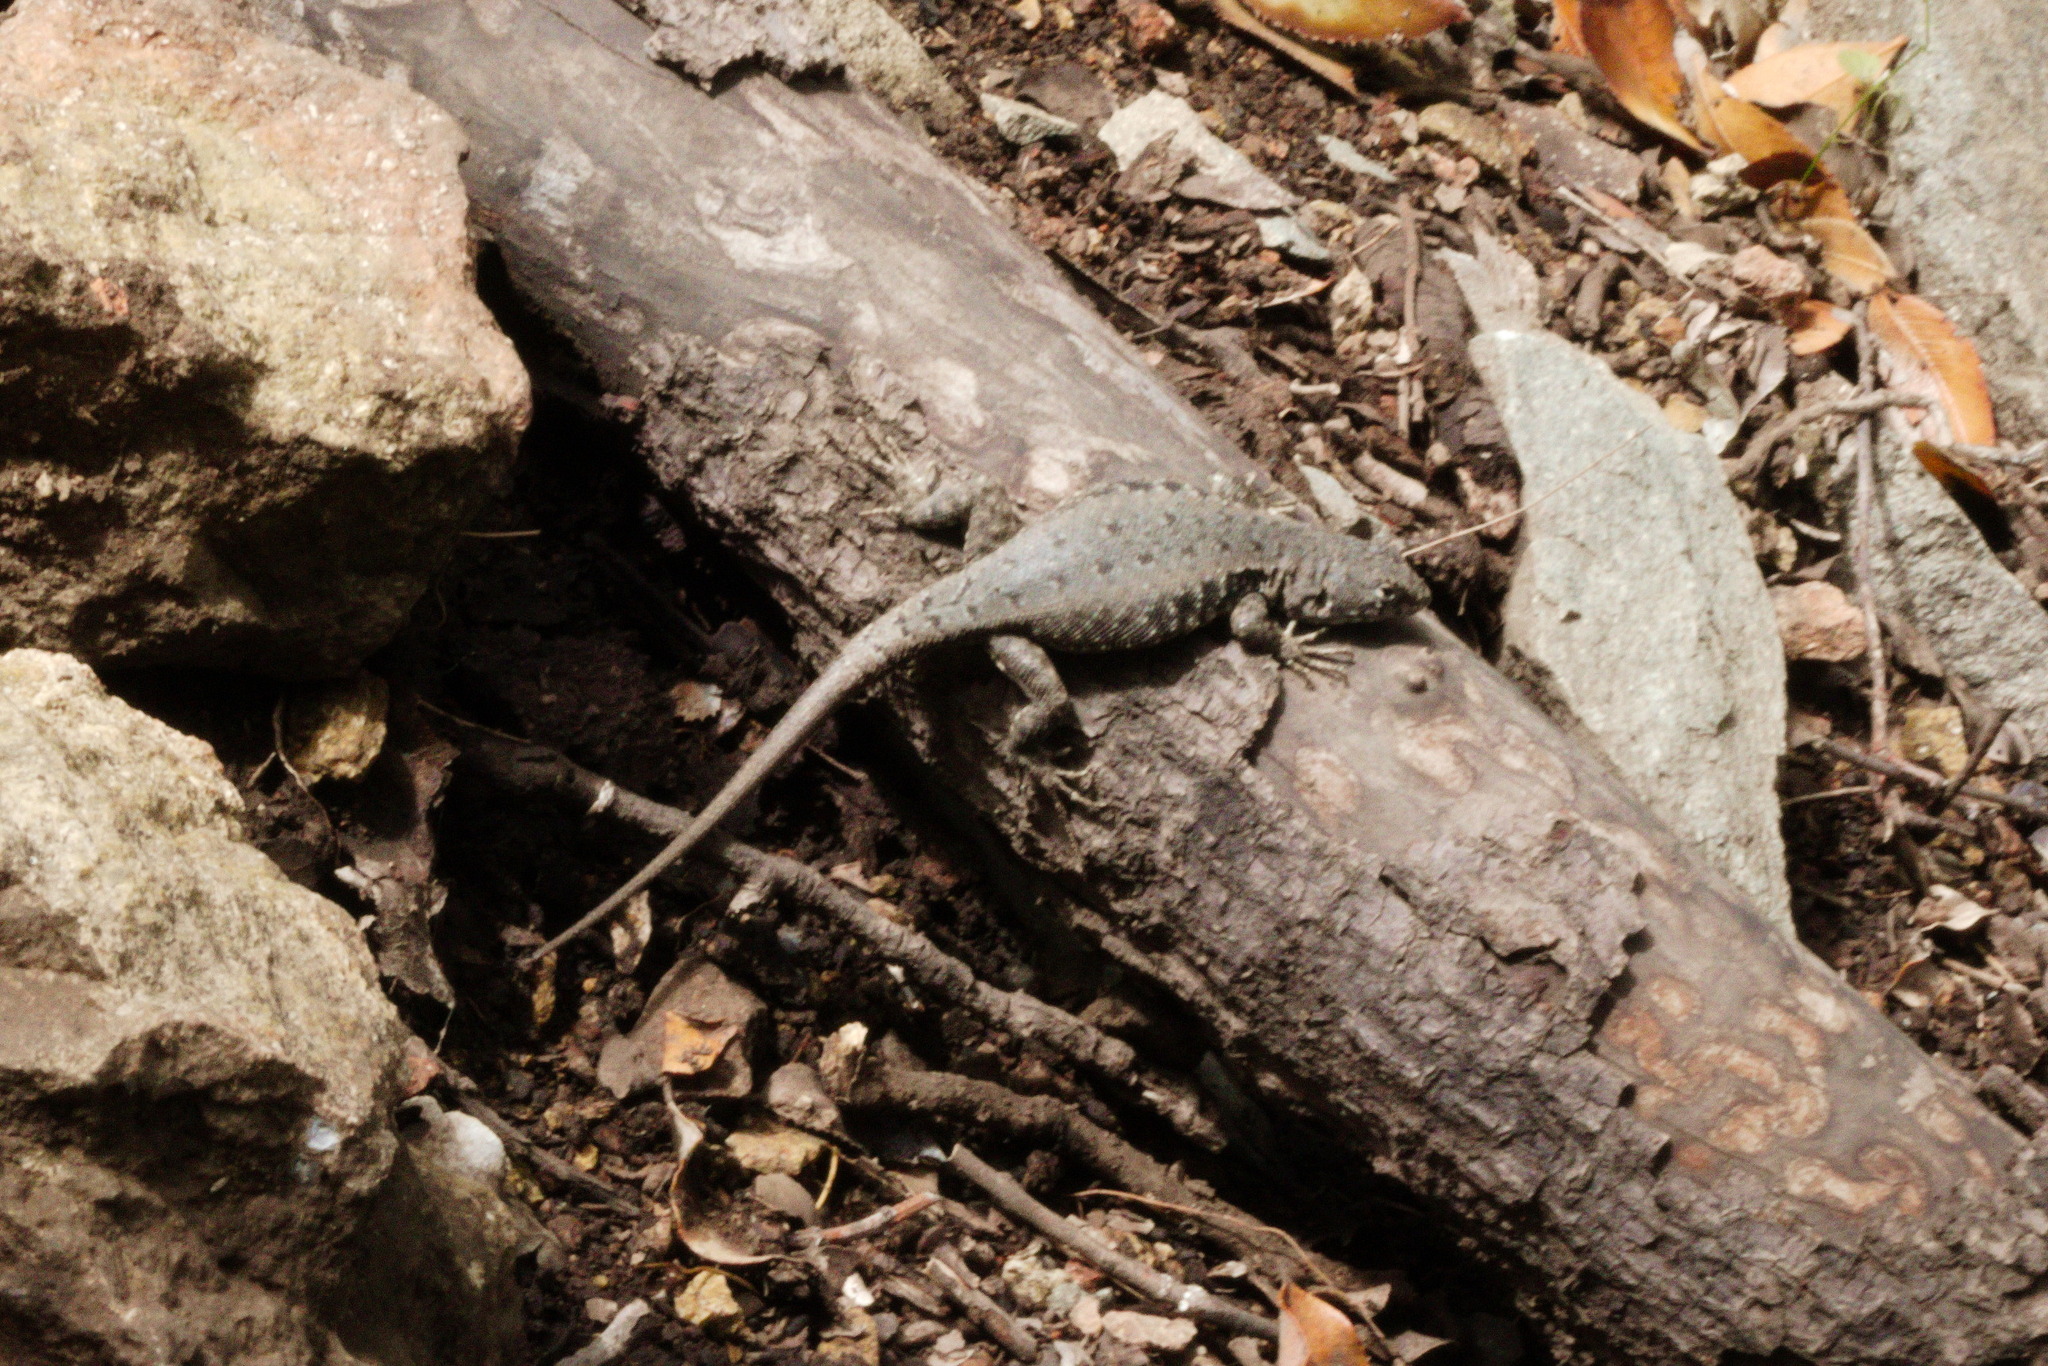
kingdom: Animalia
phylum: Chordata
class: Squamata
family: Liolaemidae
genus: Liolaemus
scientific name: Liolaemus monticola
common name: Peak tree iguana
